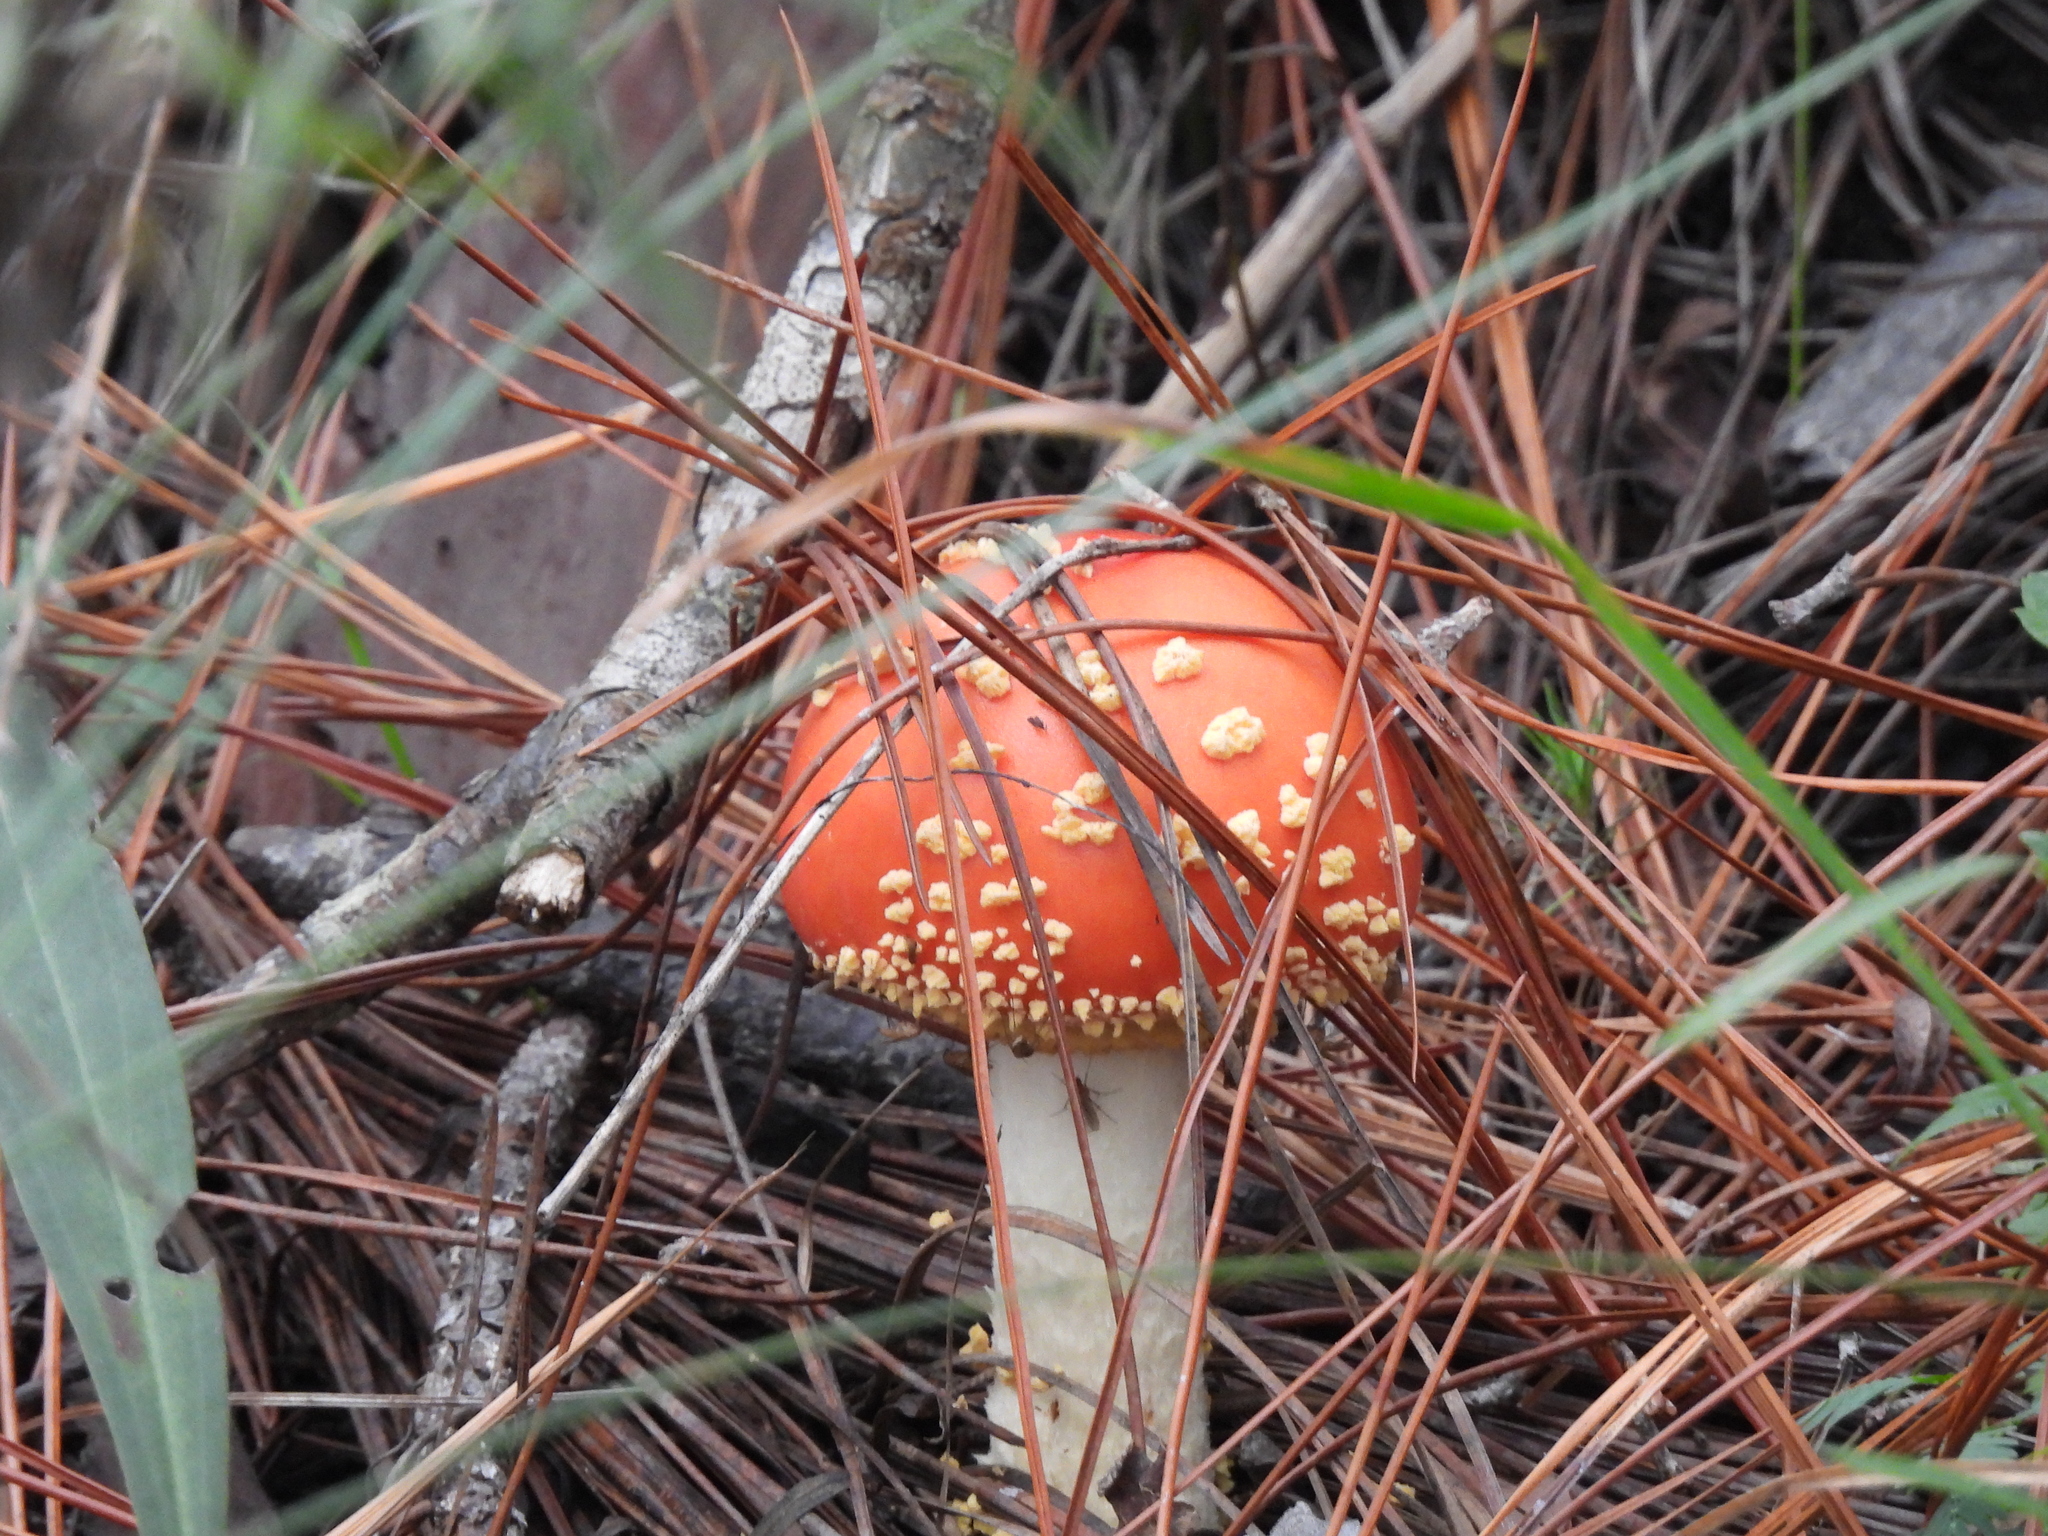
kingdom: Fungi
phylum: Basidiomycota
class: Agaricomycetes
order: Agaricales
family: Amanitaceae
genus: Amanita
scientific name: Amanita persicina
